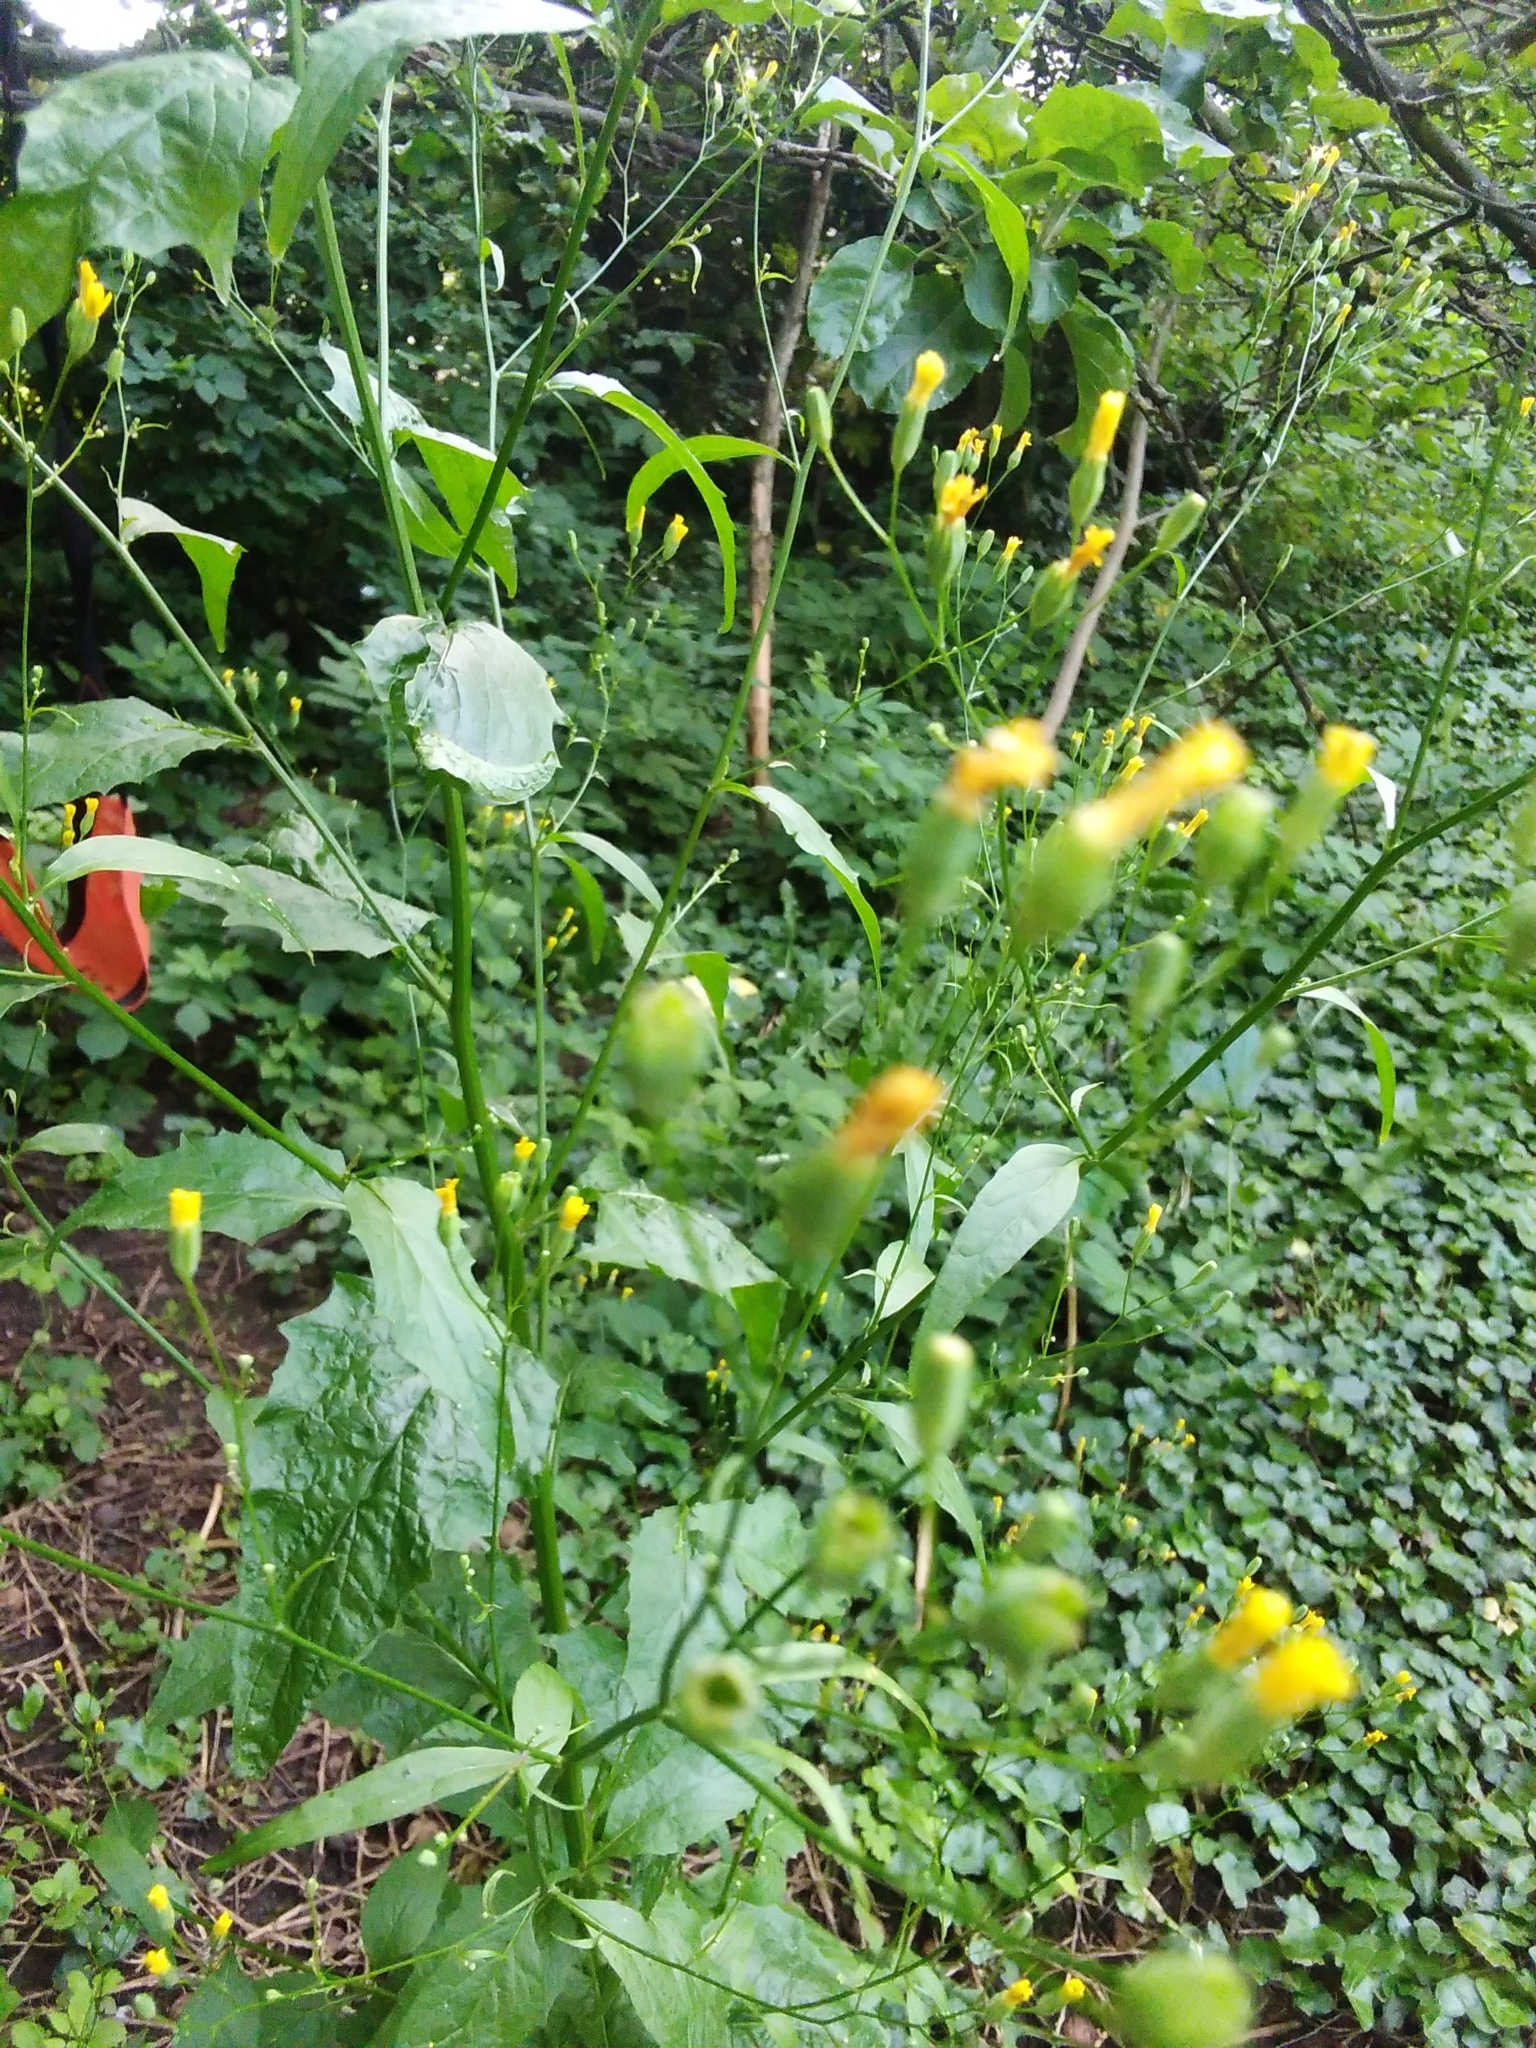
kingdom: Plantae
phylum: Tracheophyta
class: Magnoliopsida
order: Asterales
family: Asteraceae
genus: Lapsana
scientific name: Lapsana communis
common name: Nipplewort
